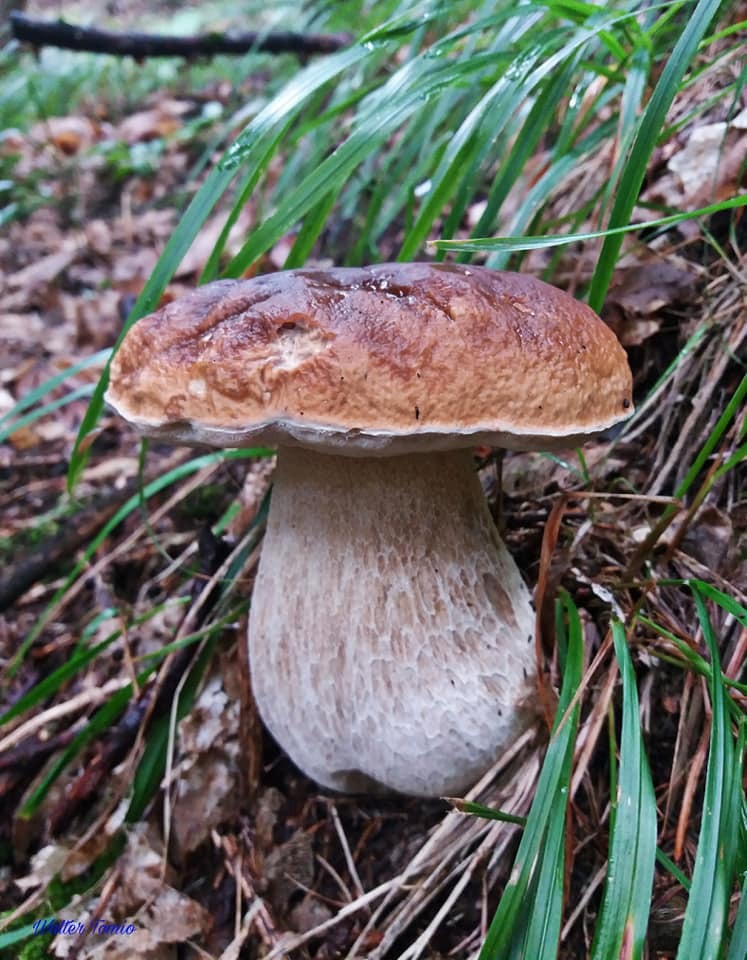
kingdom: Fungi
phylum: Basidiomycota
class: Agaricomycetes
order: Boletales
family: Boletaceae
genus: Boletus
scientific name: Boletus edulis
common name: Cep
